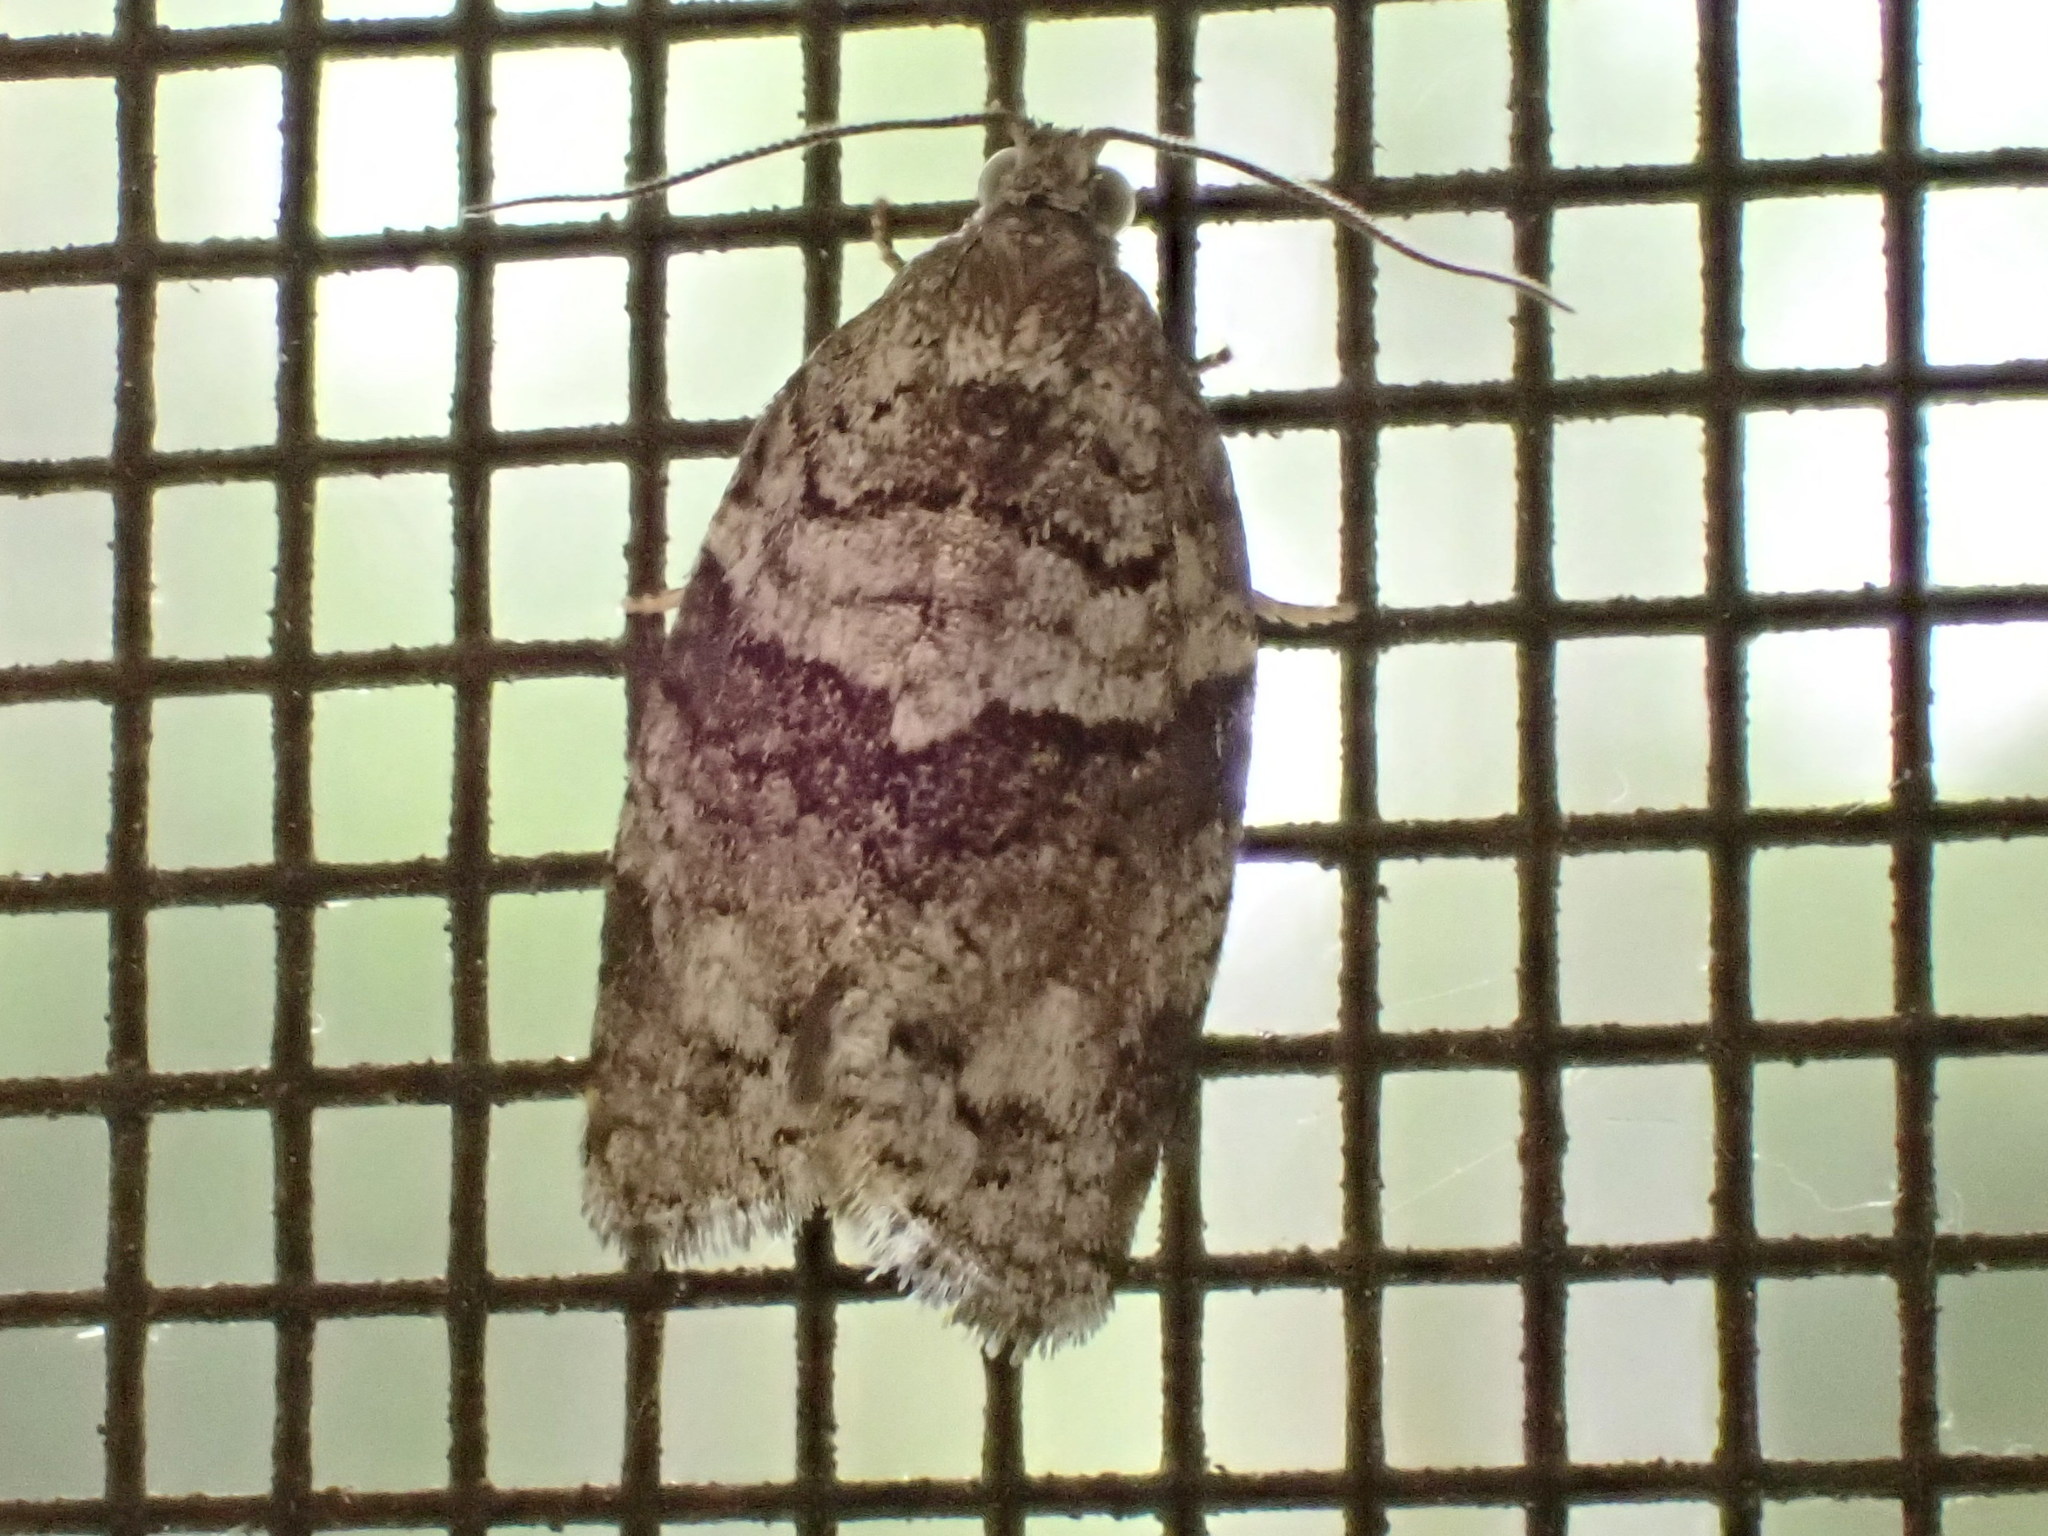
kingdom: Animalia
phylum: Arthropoda
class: Insecta
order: Lepidoptera
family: Tortricidae
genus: Syndemis
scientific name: Syndemis afflictana
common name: Gray leafroller moth
